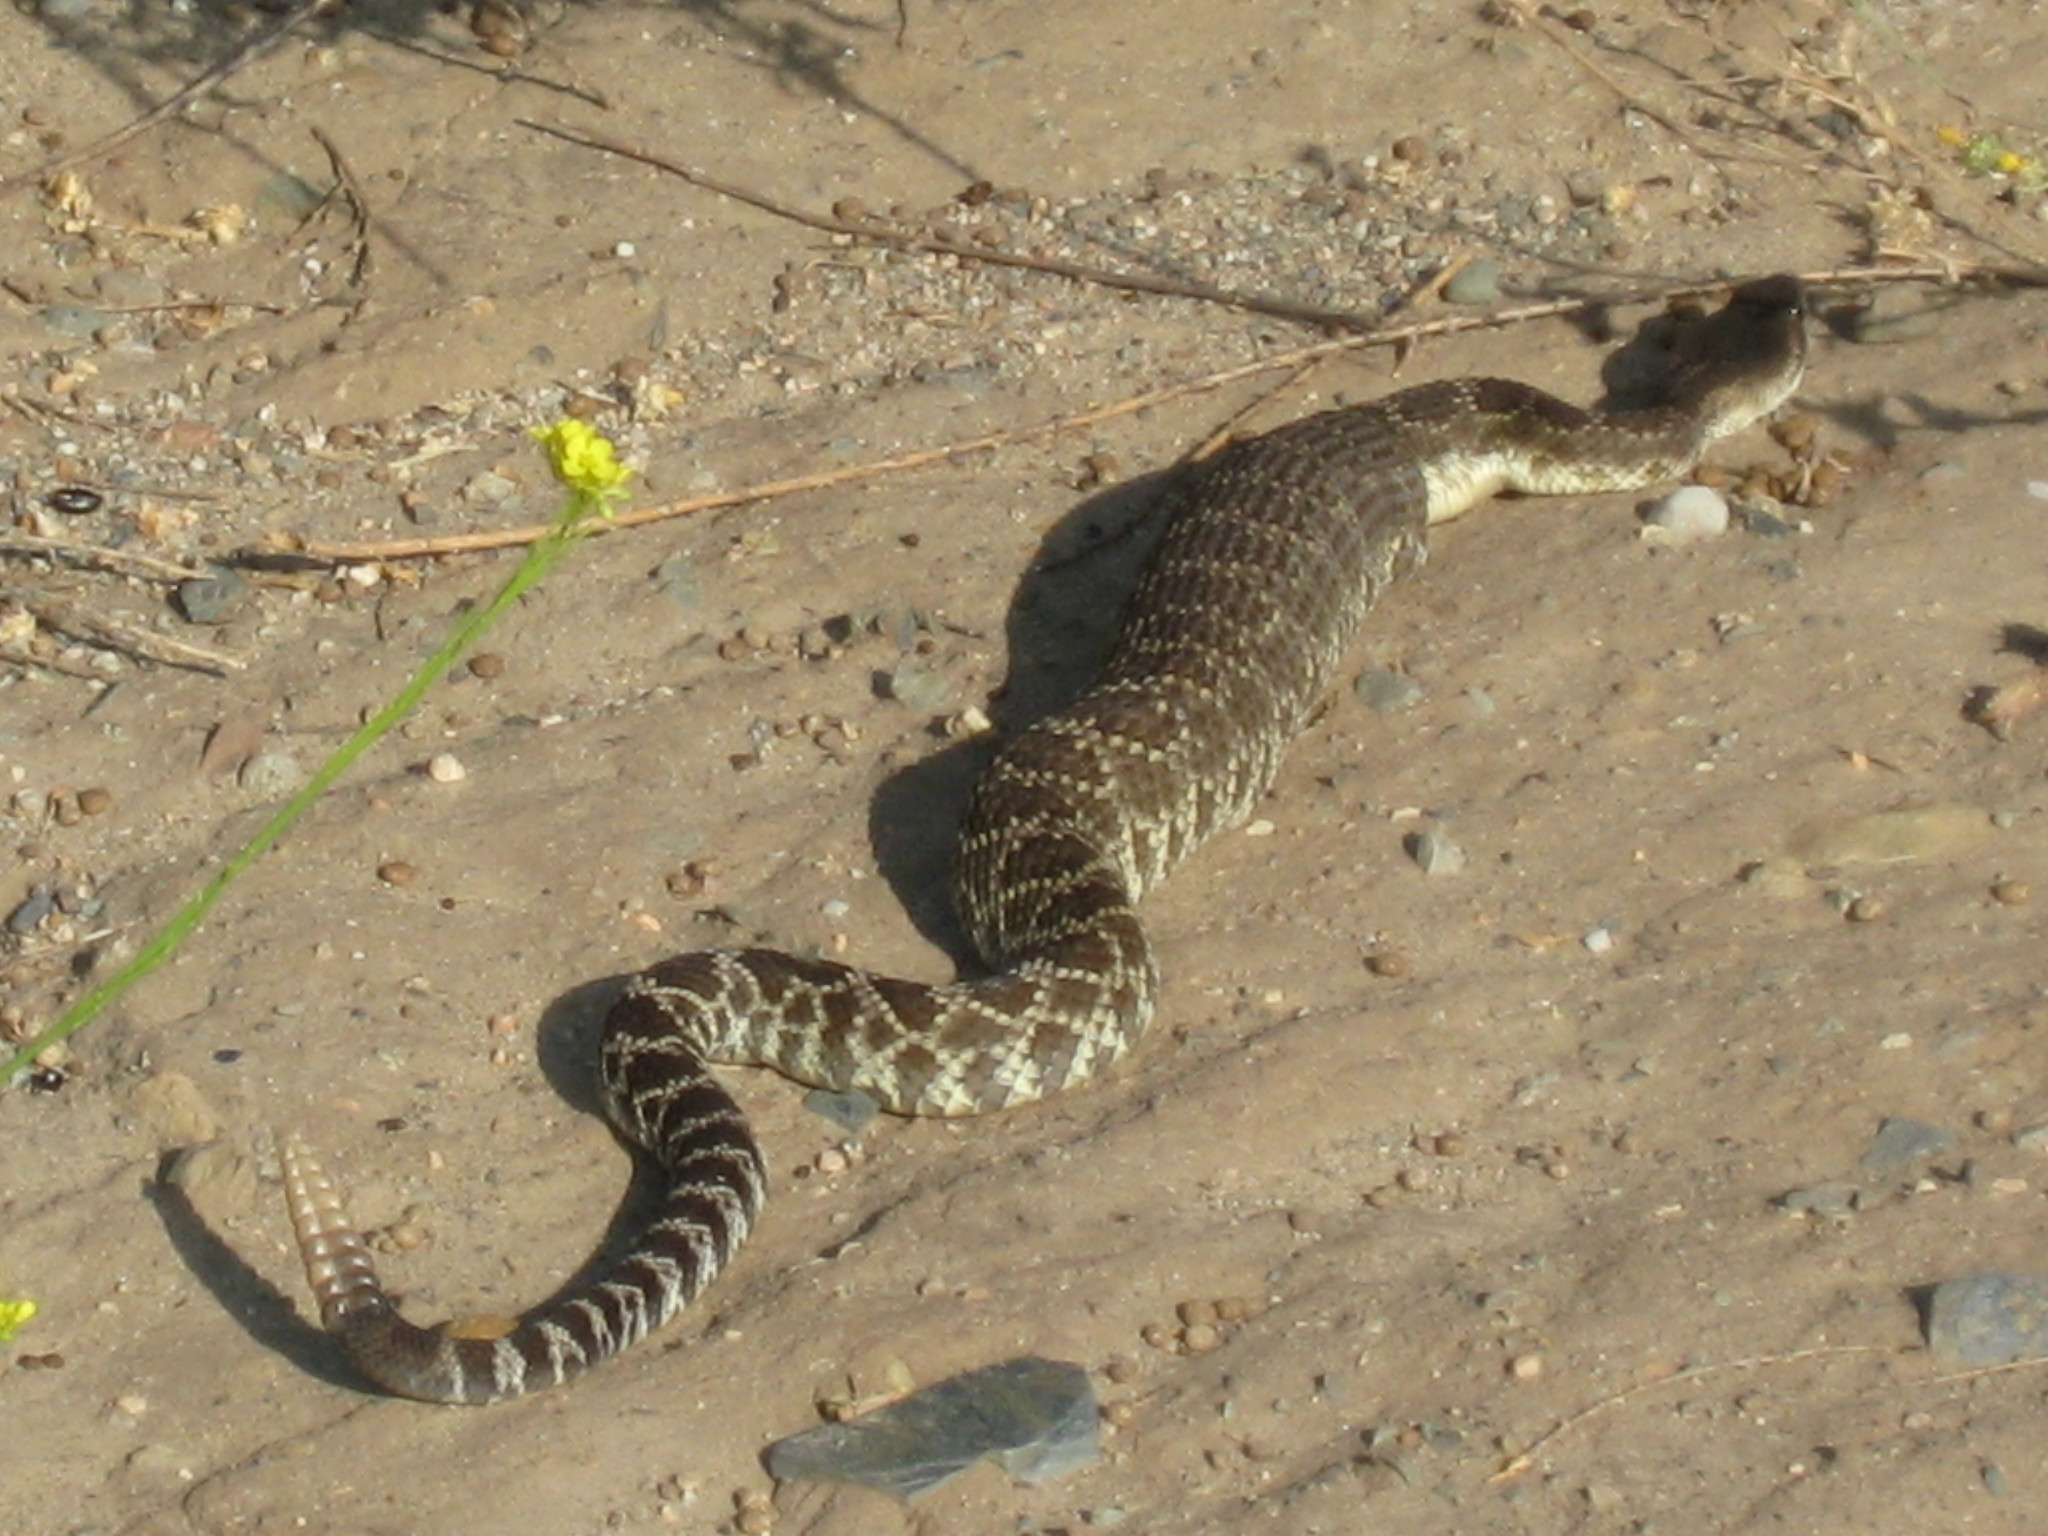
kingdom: Animalia
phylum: Chordata
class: Squamata
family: Viperidae
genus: Crotalus
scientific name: Crotalus oreganus
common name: Abyssus
